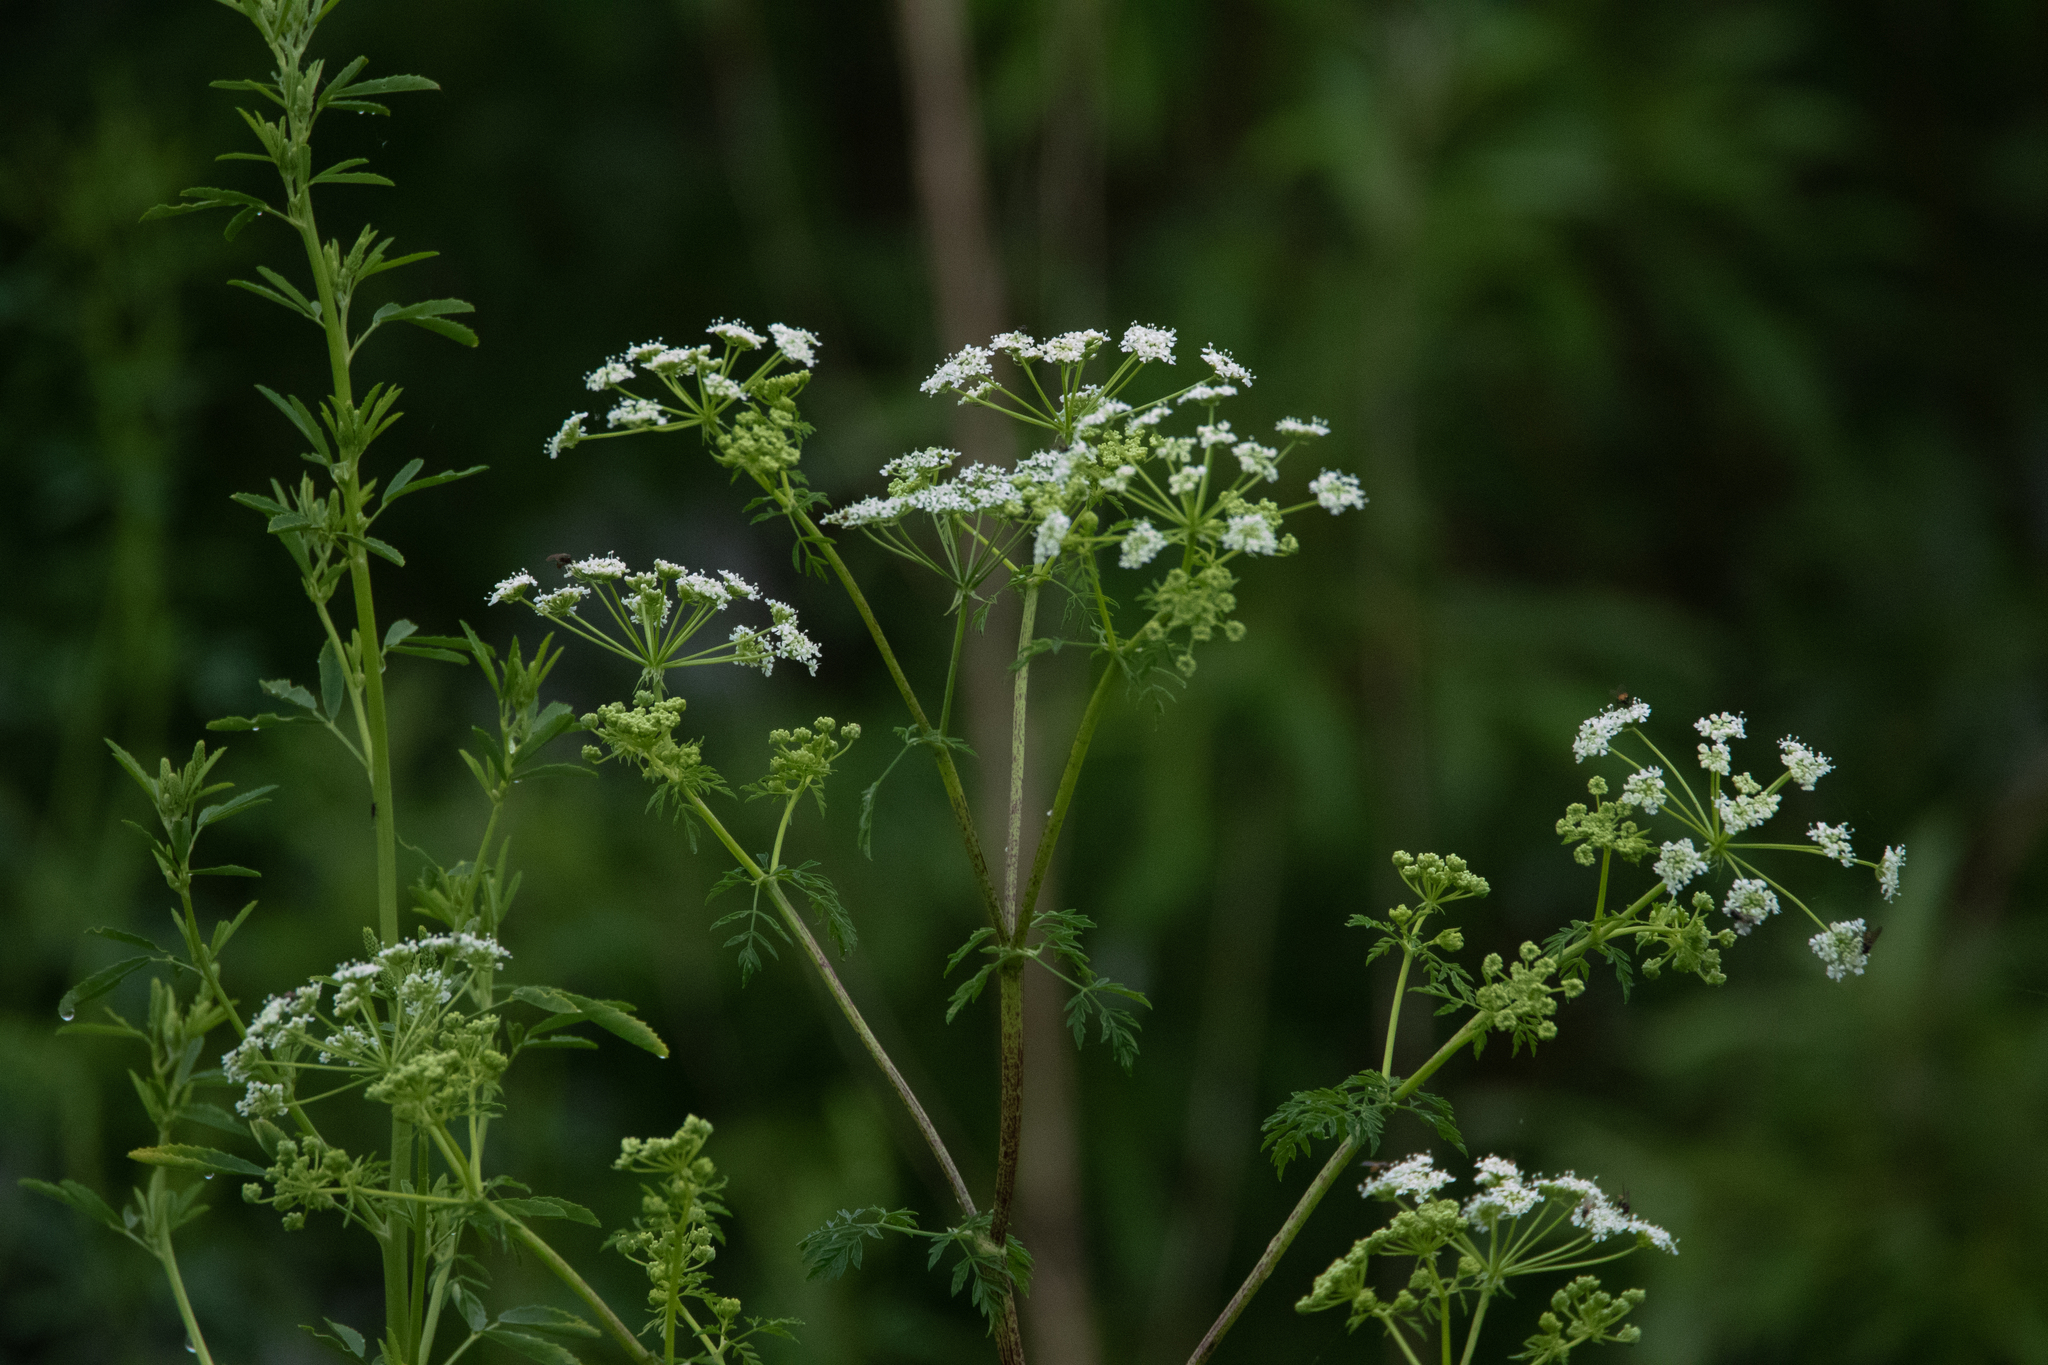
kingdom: Plantae
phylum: Tracheophyta
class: Magnoliopsida
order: Apiales
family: Apiaceae
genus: Conium
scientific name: Conium maculatum
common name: Hemlock
